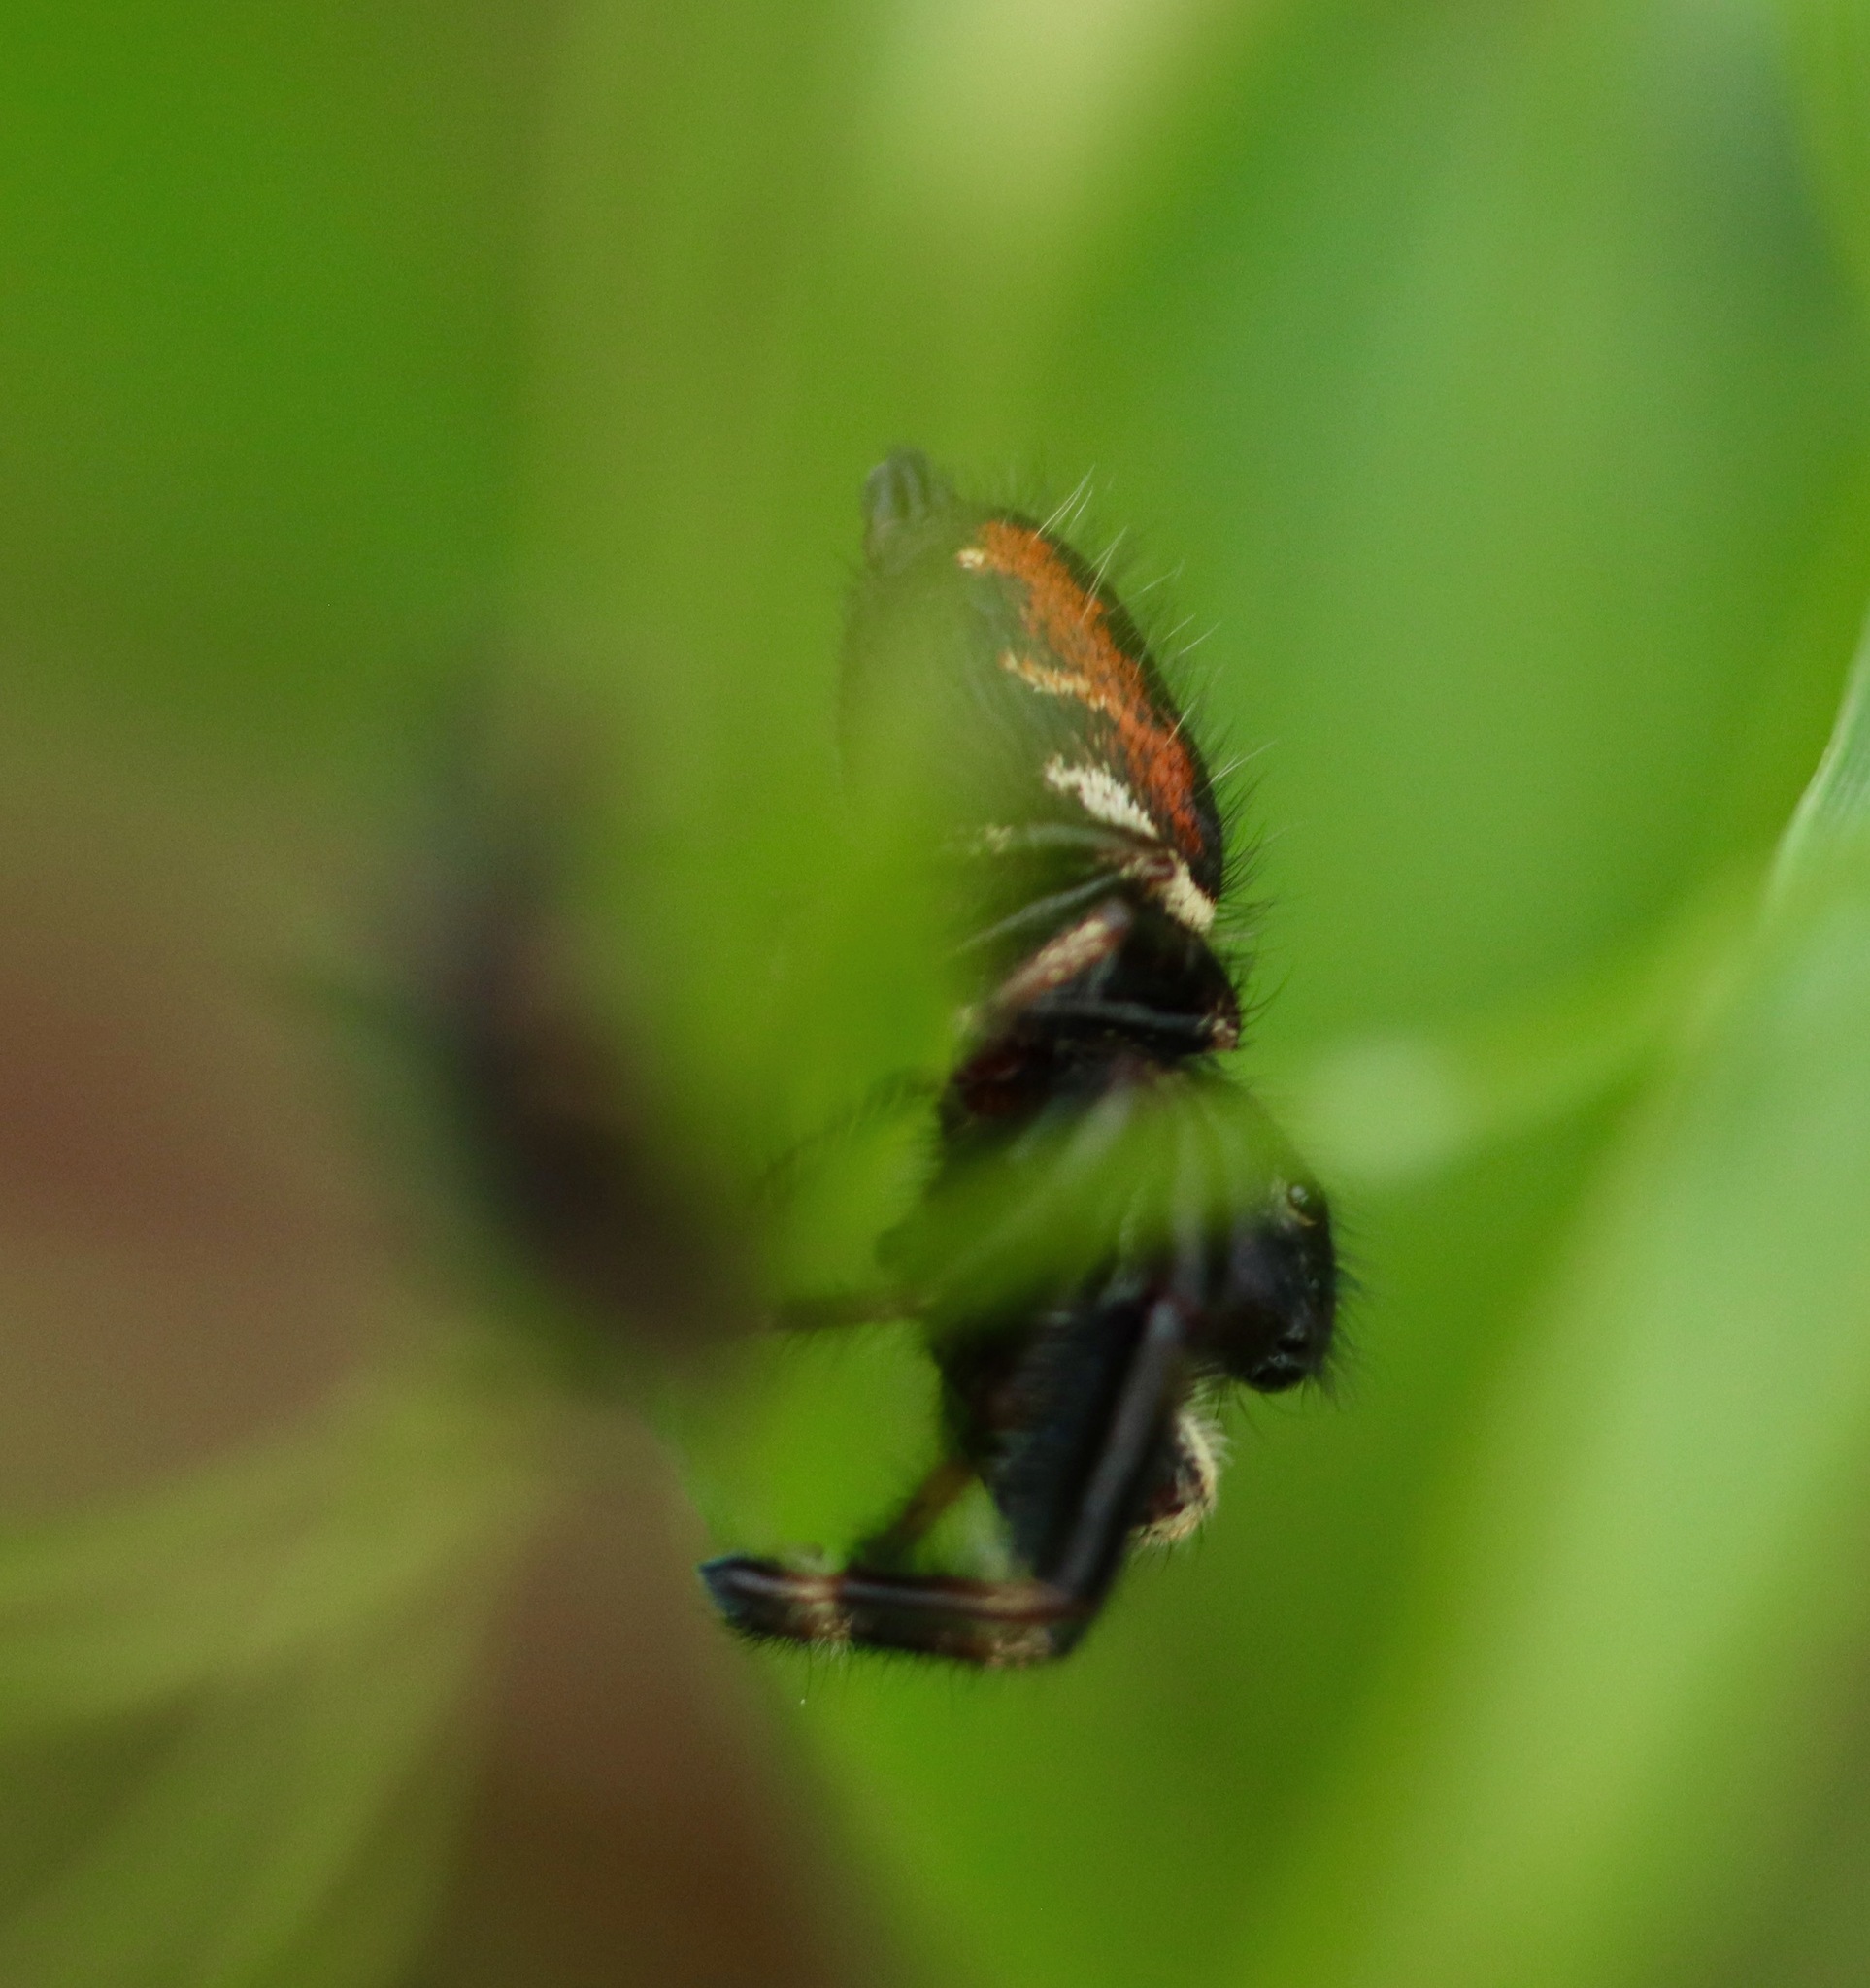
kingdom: Animalia
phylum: Arthropoda
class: Arachnida
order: Araneae
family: Salticidae
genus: Phidippus
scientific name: Phidippus clarus
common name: Brilliant jumping spider
